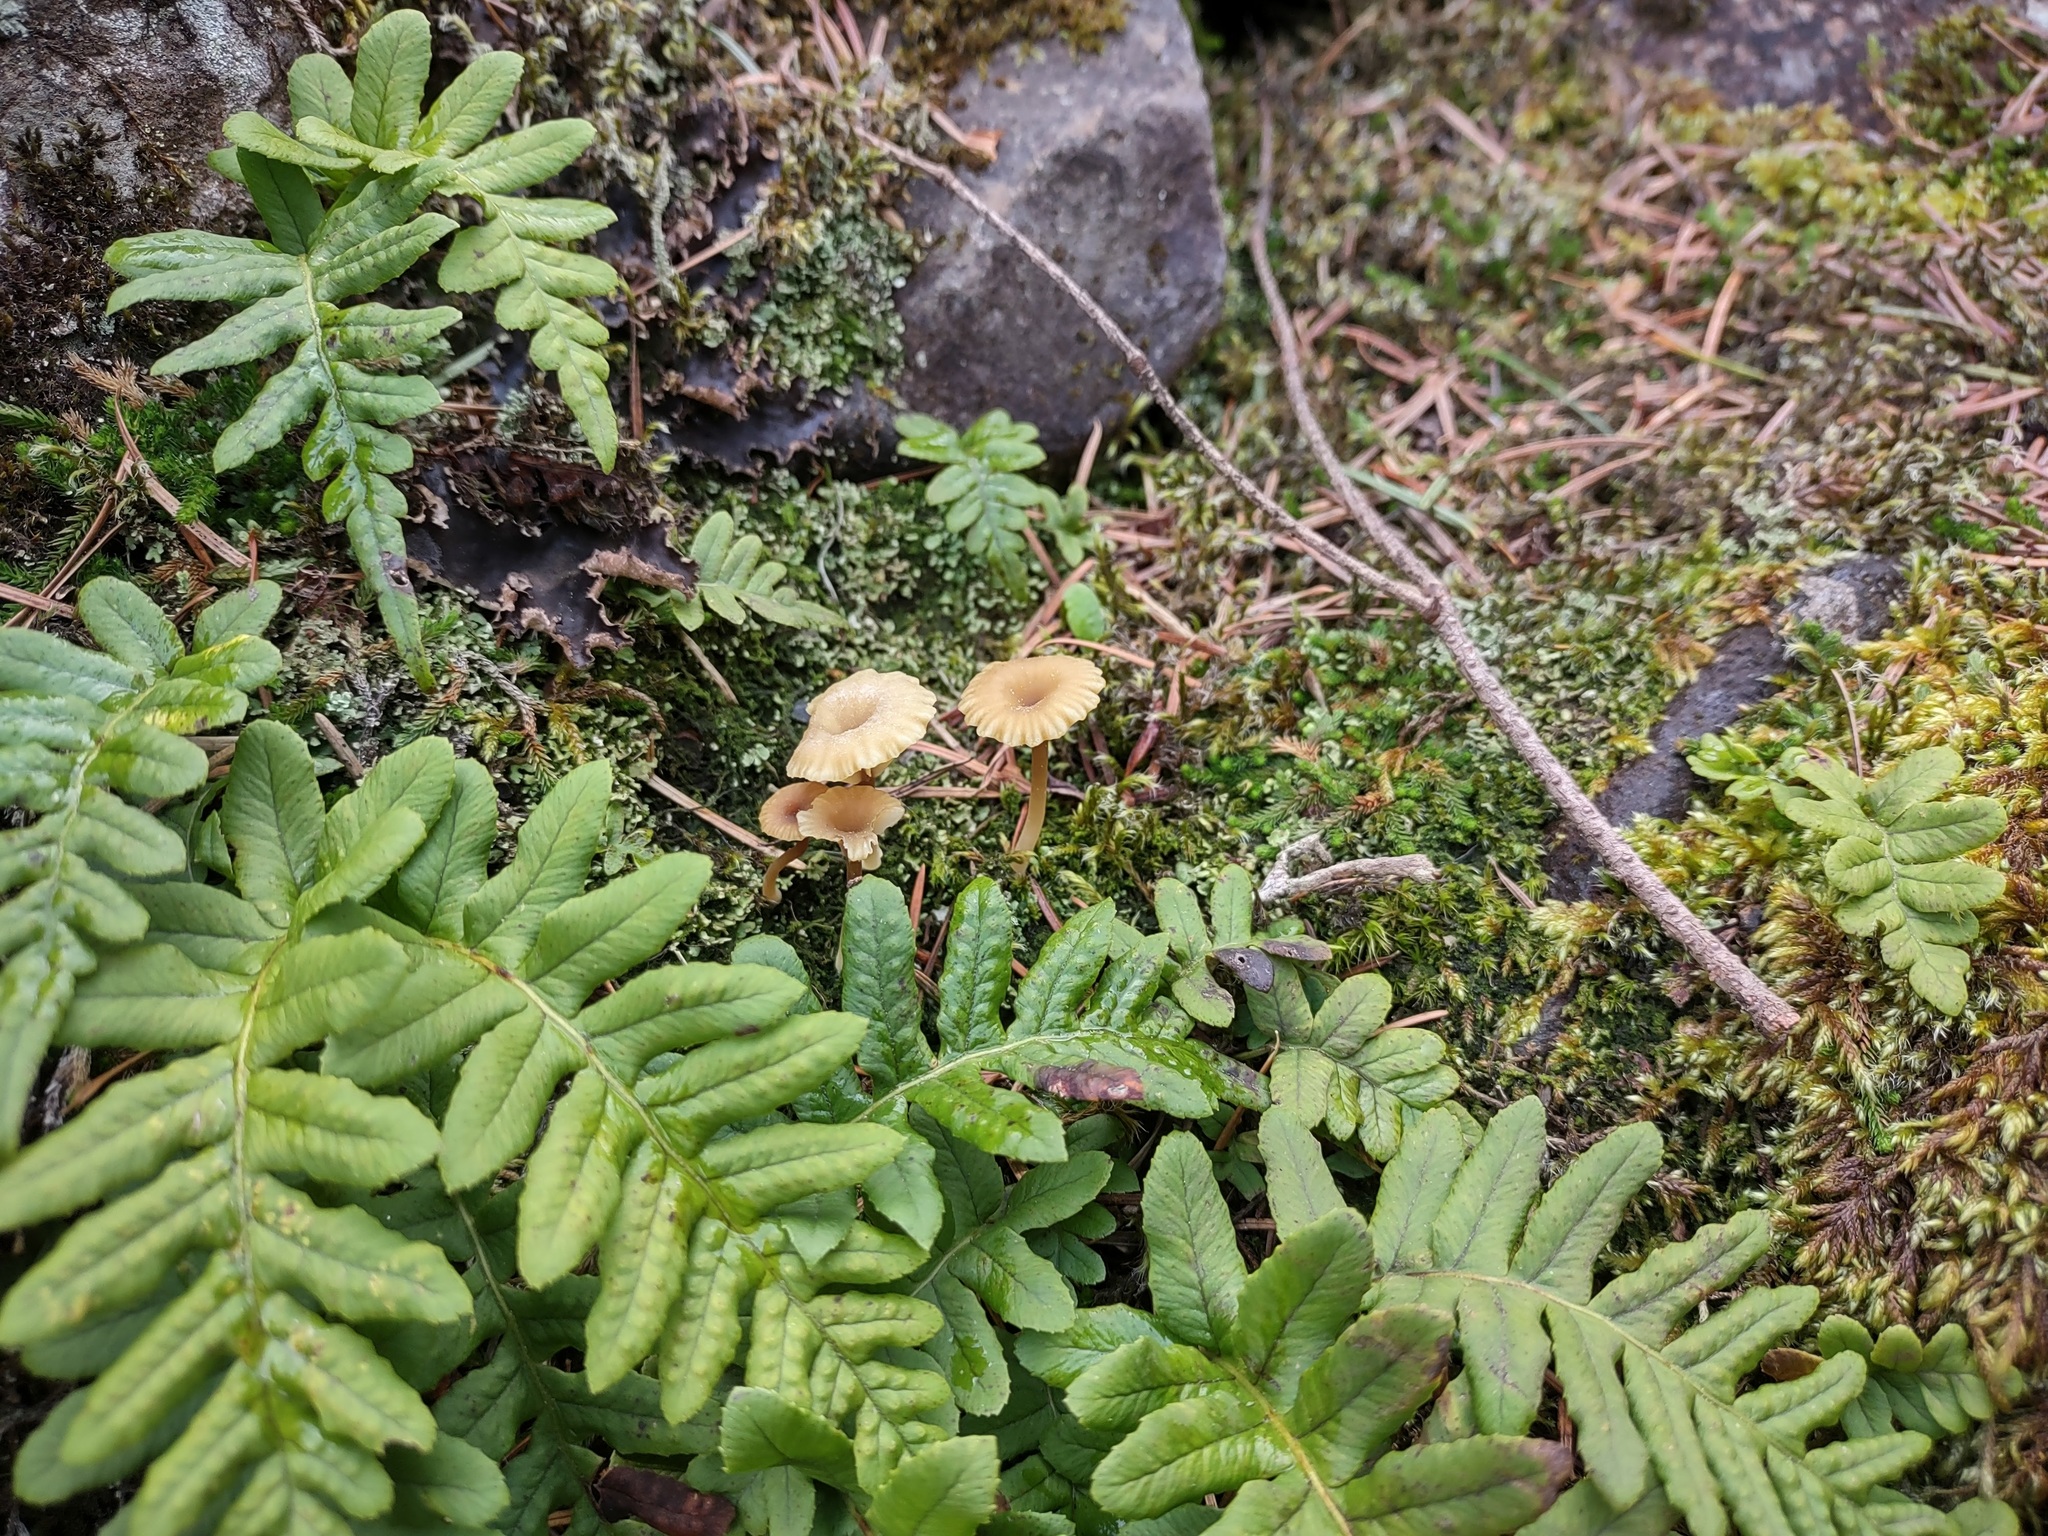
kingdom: Fungi
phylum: Basidiomycota
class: Agaricomycetes
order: Agaricales
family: Hygrophoraceae
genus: Lichenomphalia
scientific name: Lichenomphalia
